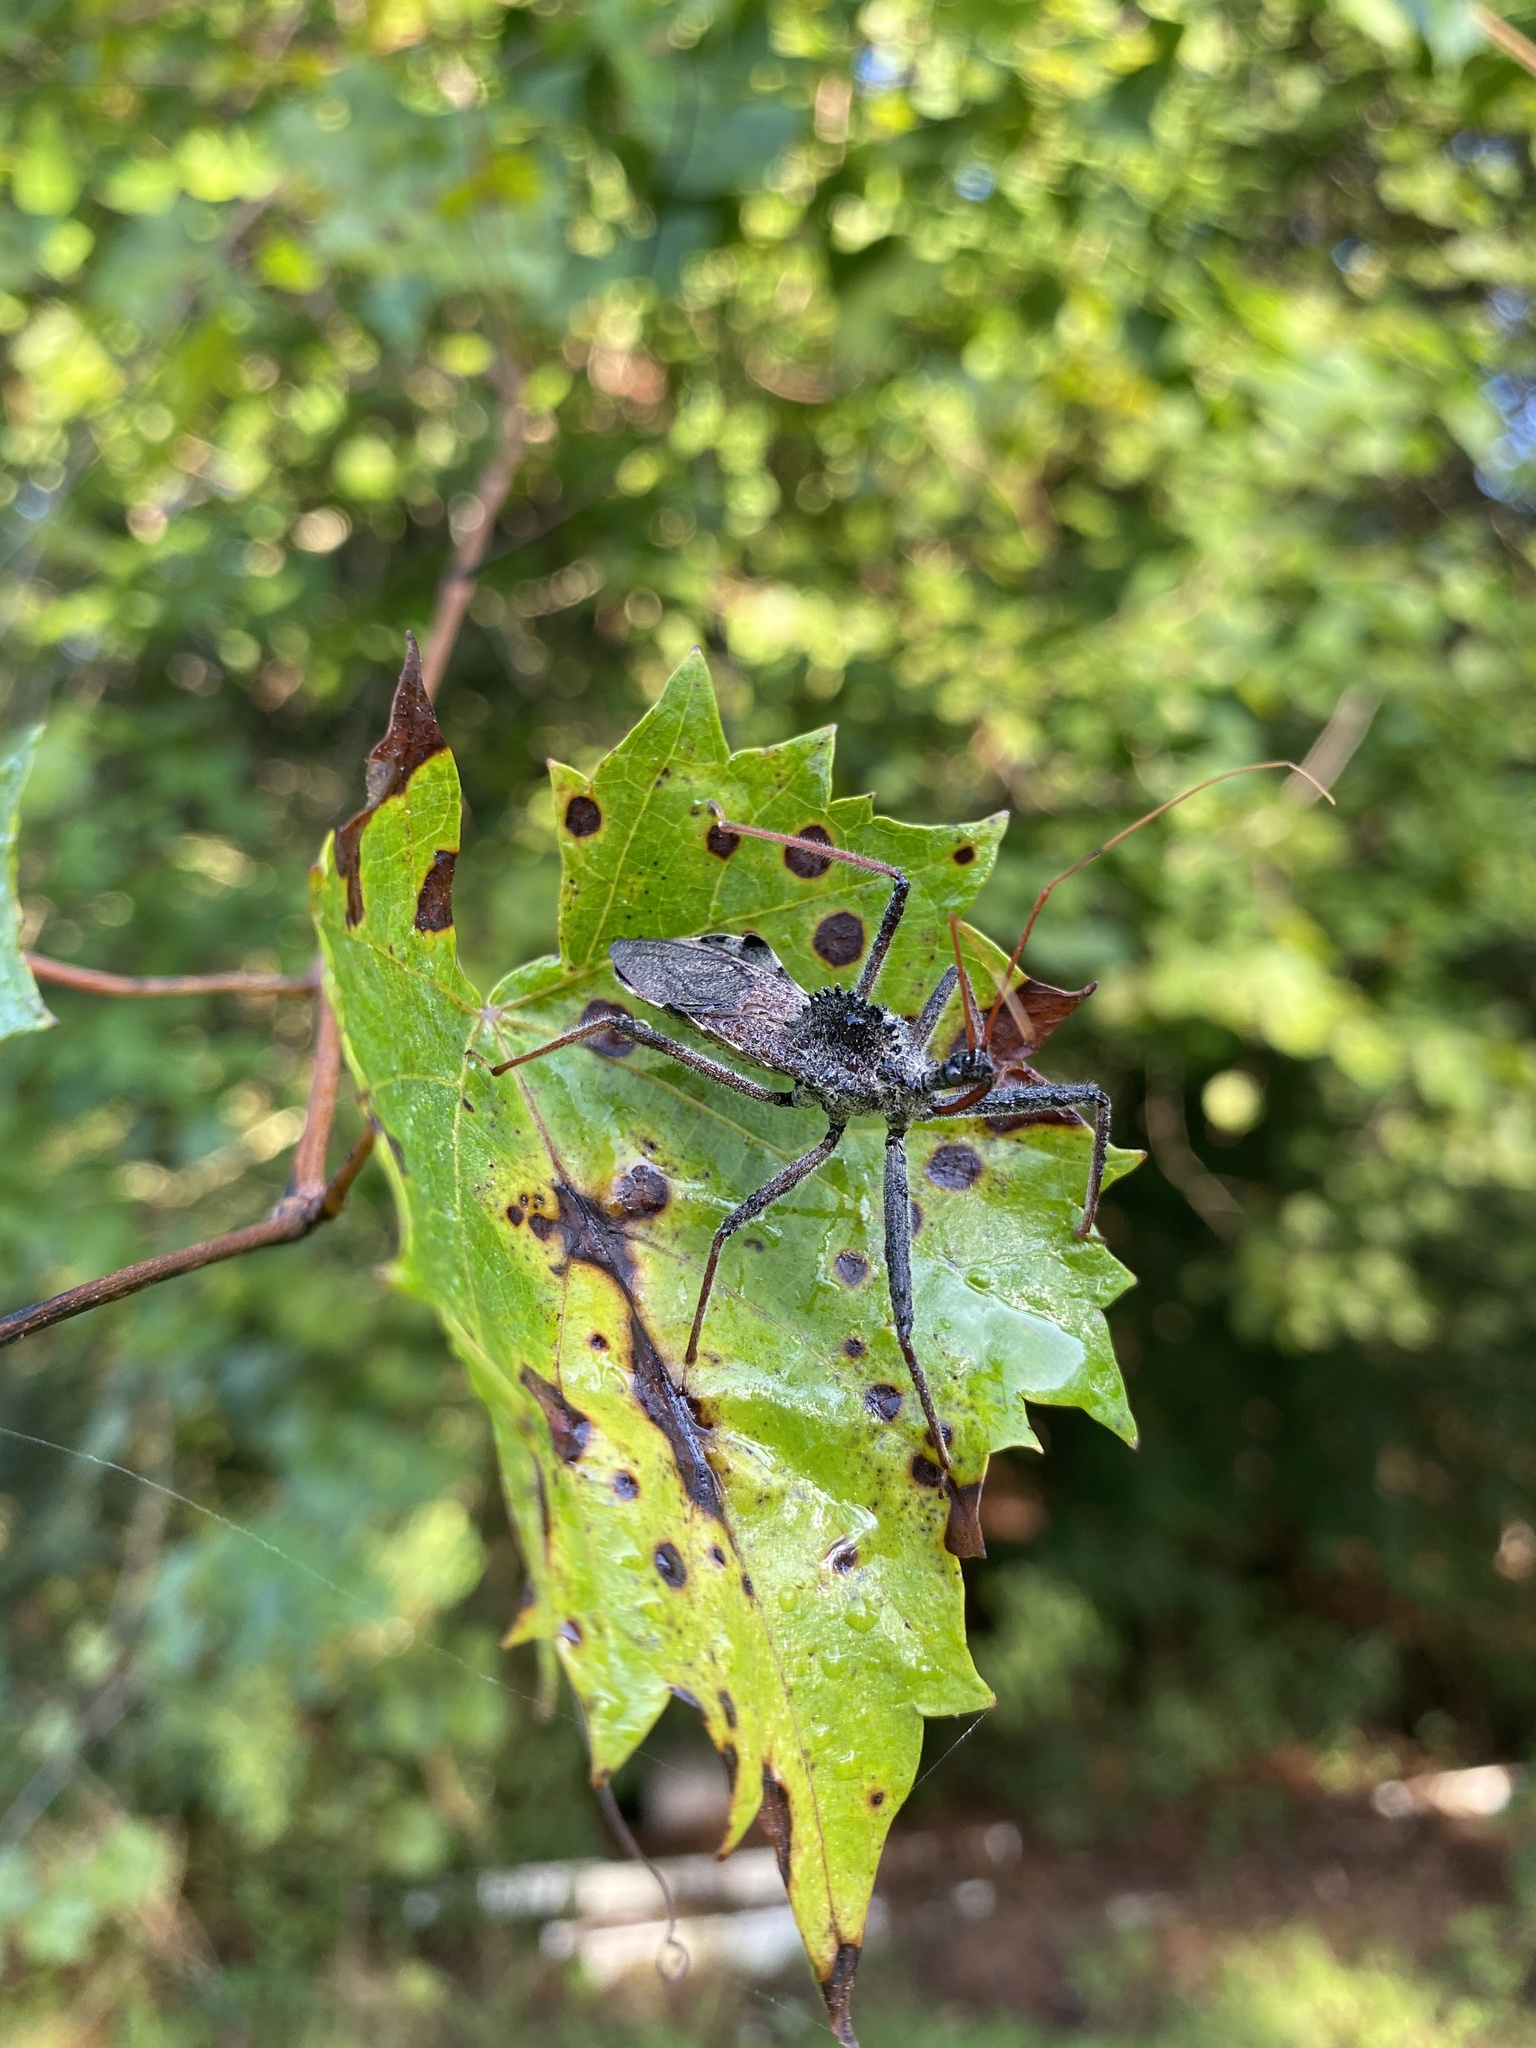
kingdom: Animalia
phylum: Arthropoda
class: Insecta
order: Hemiptera
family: Reduviidae
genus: Arilus
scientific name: Arilus cristatus
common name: North american wheel bug
